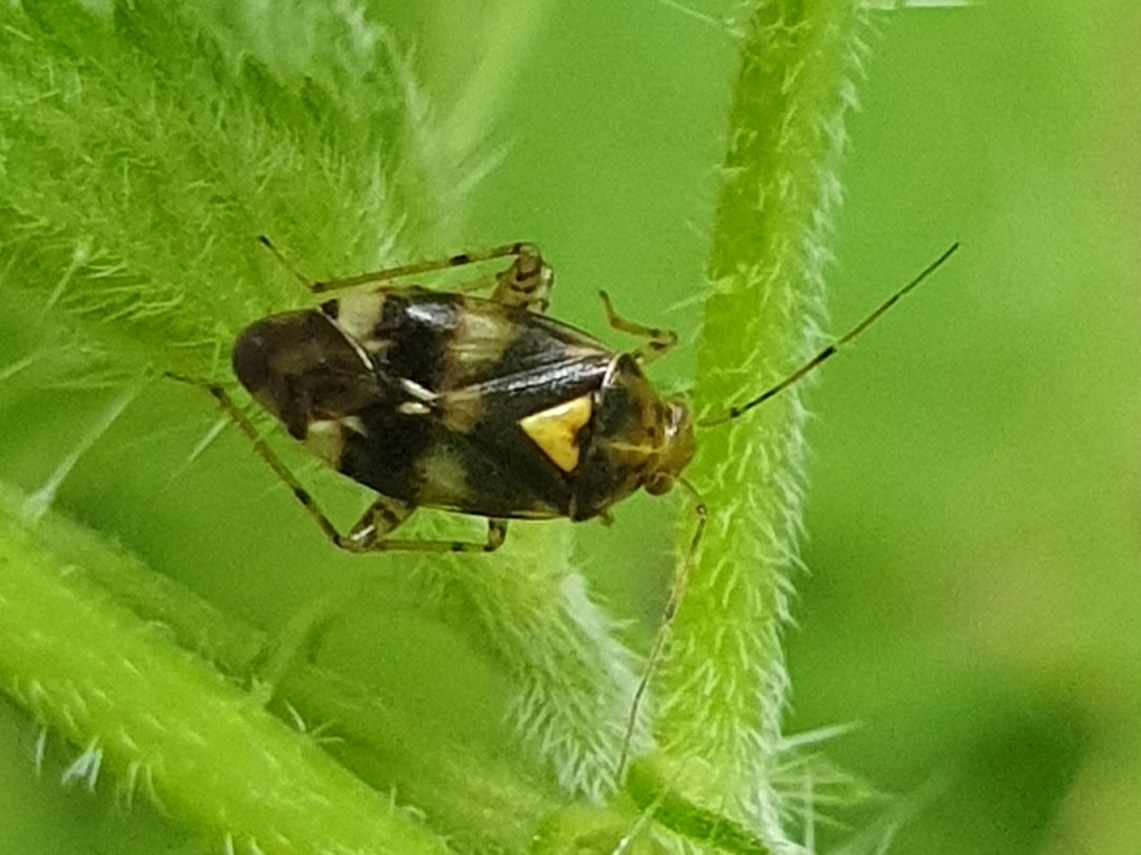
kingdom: Animalia
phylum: Arthropoda
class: Insecta
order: Hemiptera
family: Miridae
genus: Liocoris
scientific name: Liocoris tripustulatus
